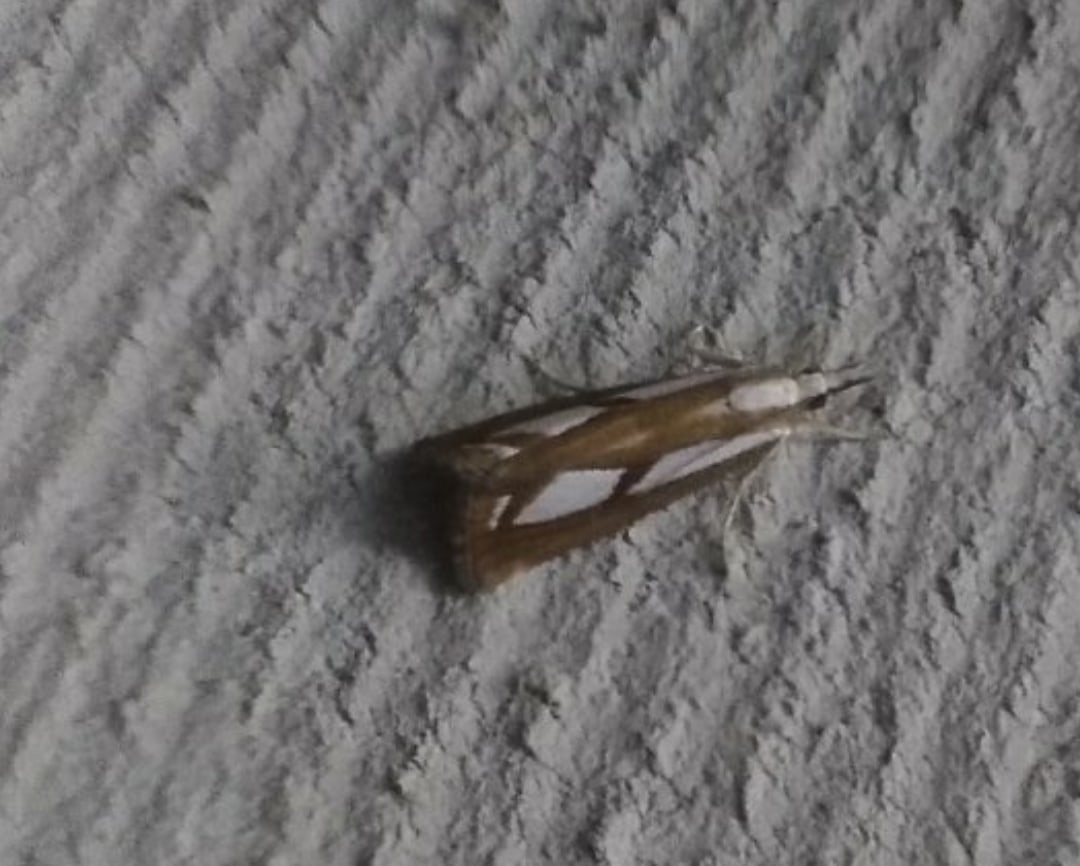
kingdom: Animalia
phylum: Arthropoda
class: Insecta
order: Lepidoptera
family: Crambidae
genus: Catoptria
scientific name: Catoptria
